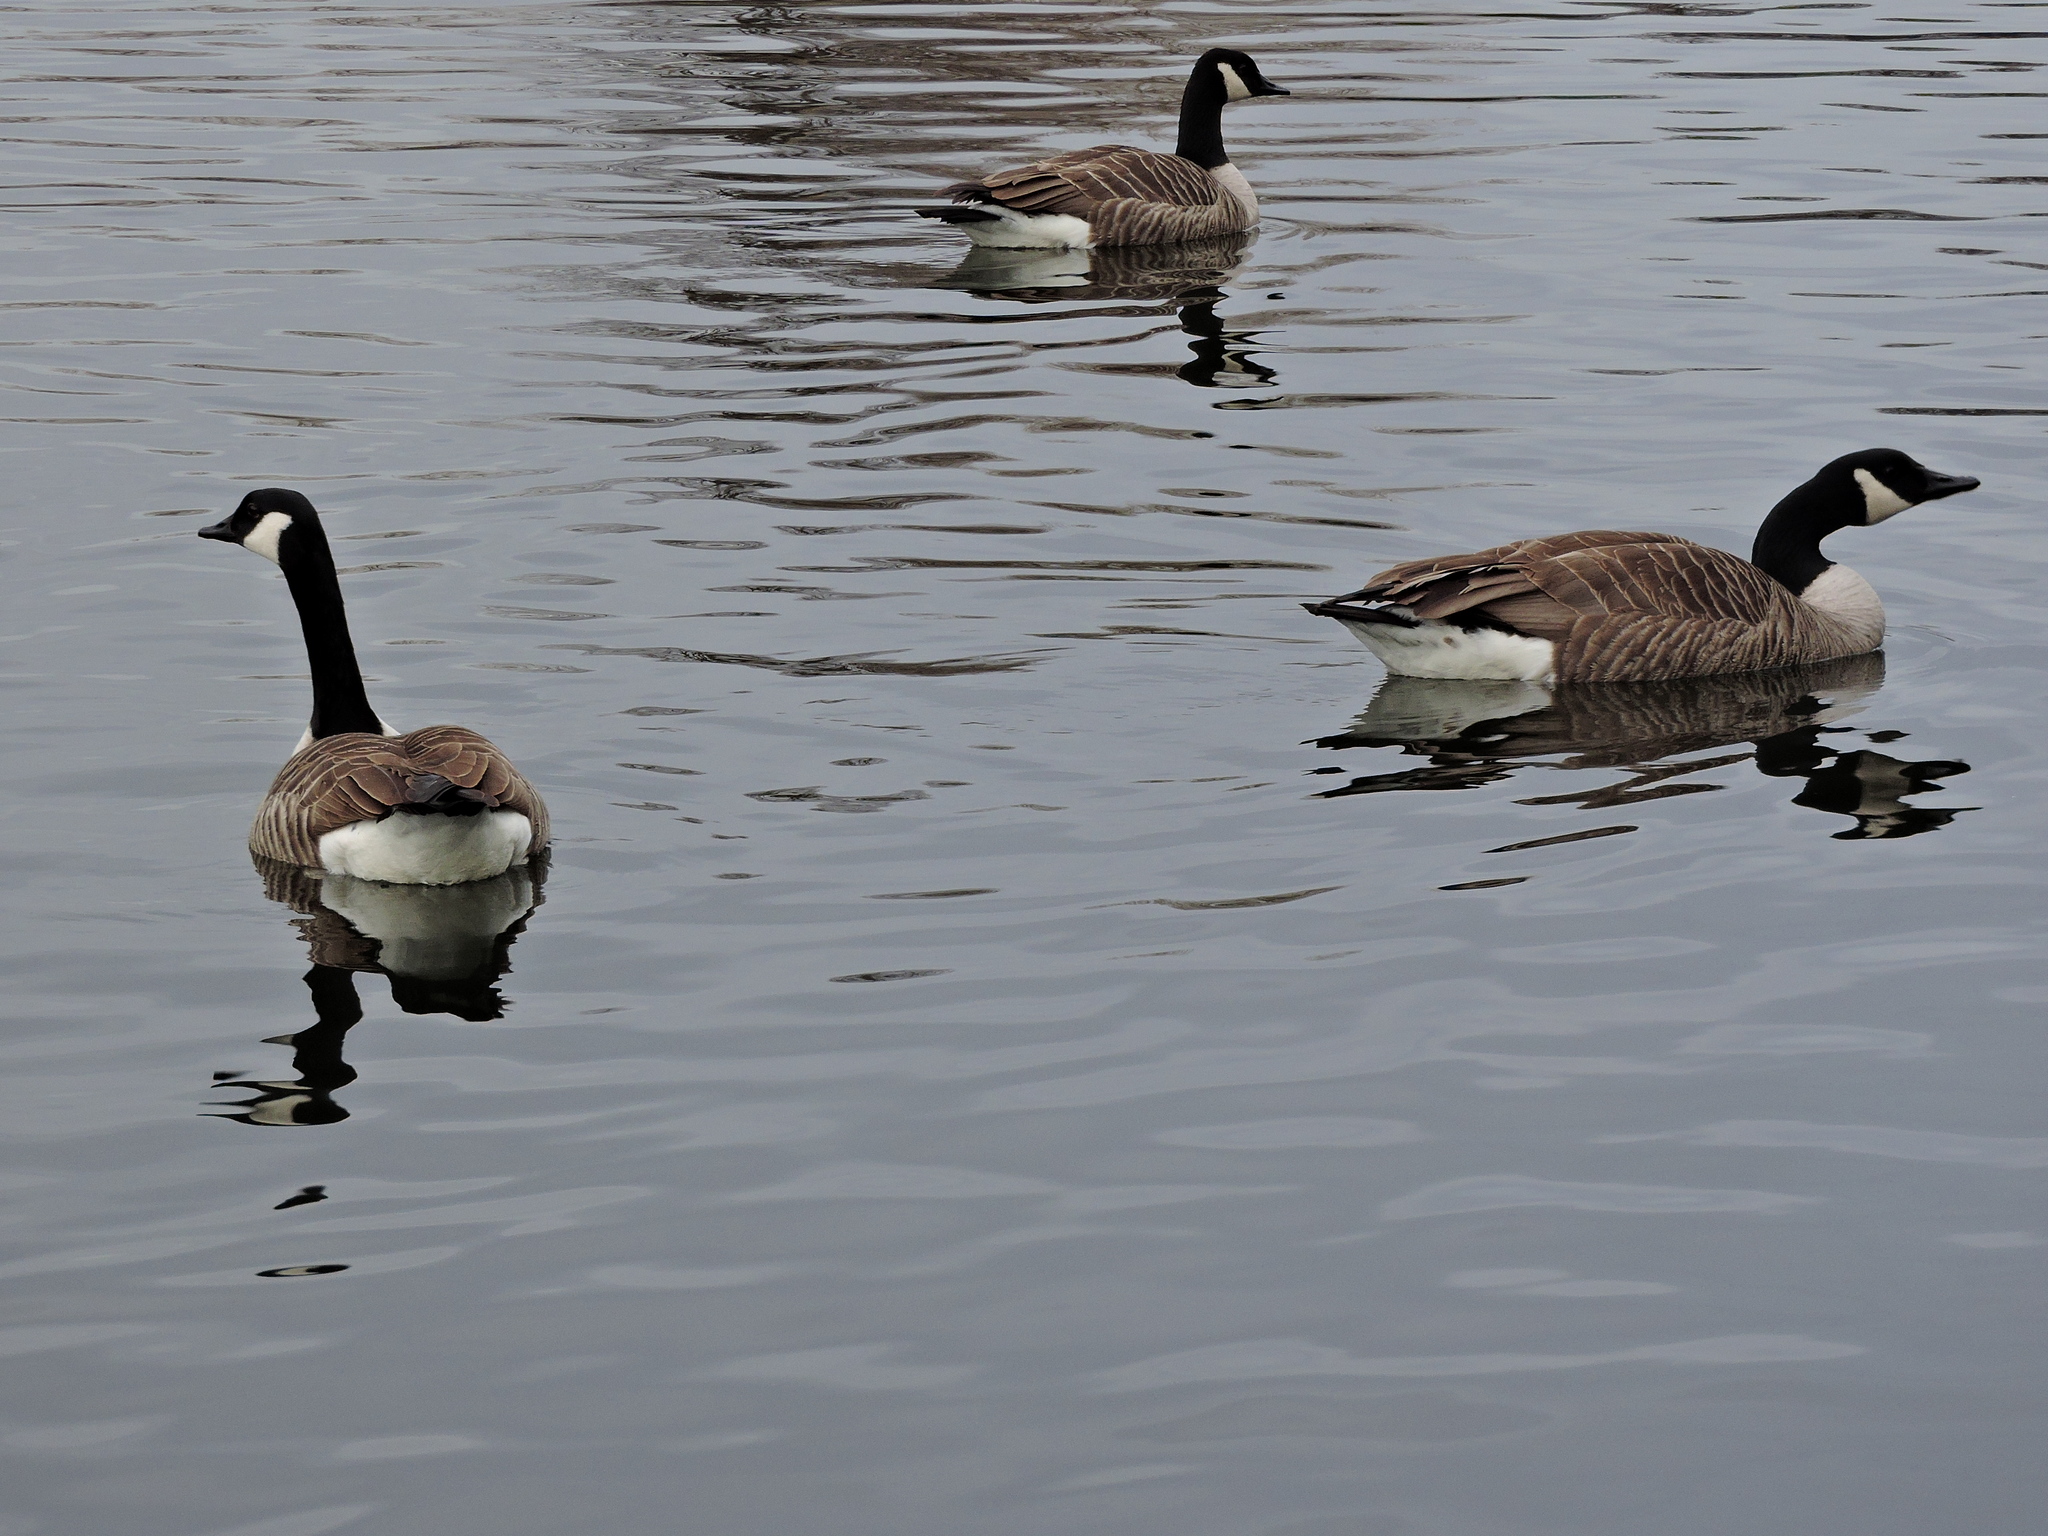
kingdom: Animalia
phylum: Chordata
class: Aves
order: Anseriformes
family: Anatidae
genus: Branta
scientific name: Branta canadensis
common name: Canada goose
